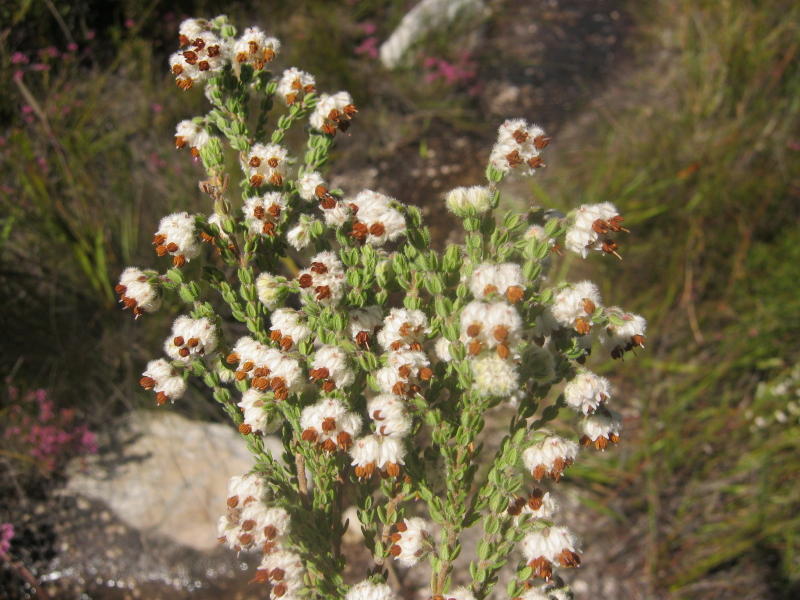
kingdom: Plantae
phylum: Tracheophyta
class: Magnoliopsida
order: Ericales
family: Ericaceae
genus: Erica
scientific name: Erica flaccida
